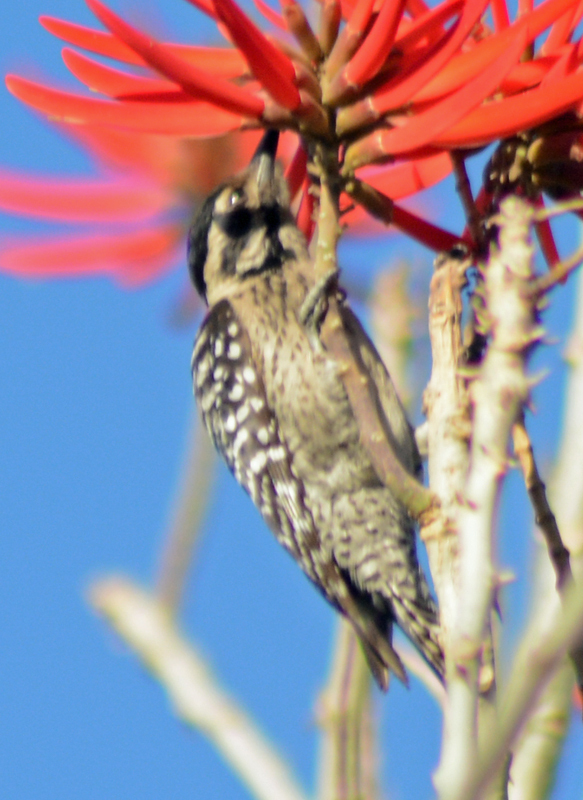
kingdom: Animalia
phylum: Chordata
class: Aves
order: Piciformes
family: Picidae
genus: Dryobates
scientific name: Dryobates scalaris
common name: Ladder-backed woodpecker
